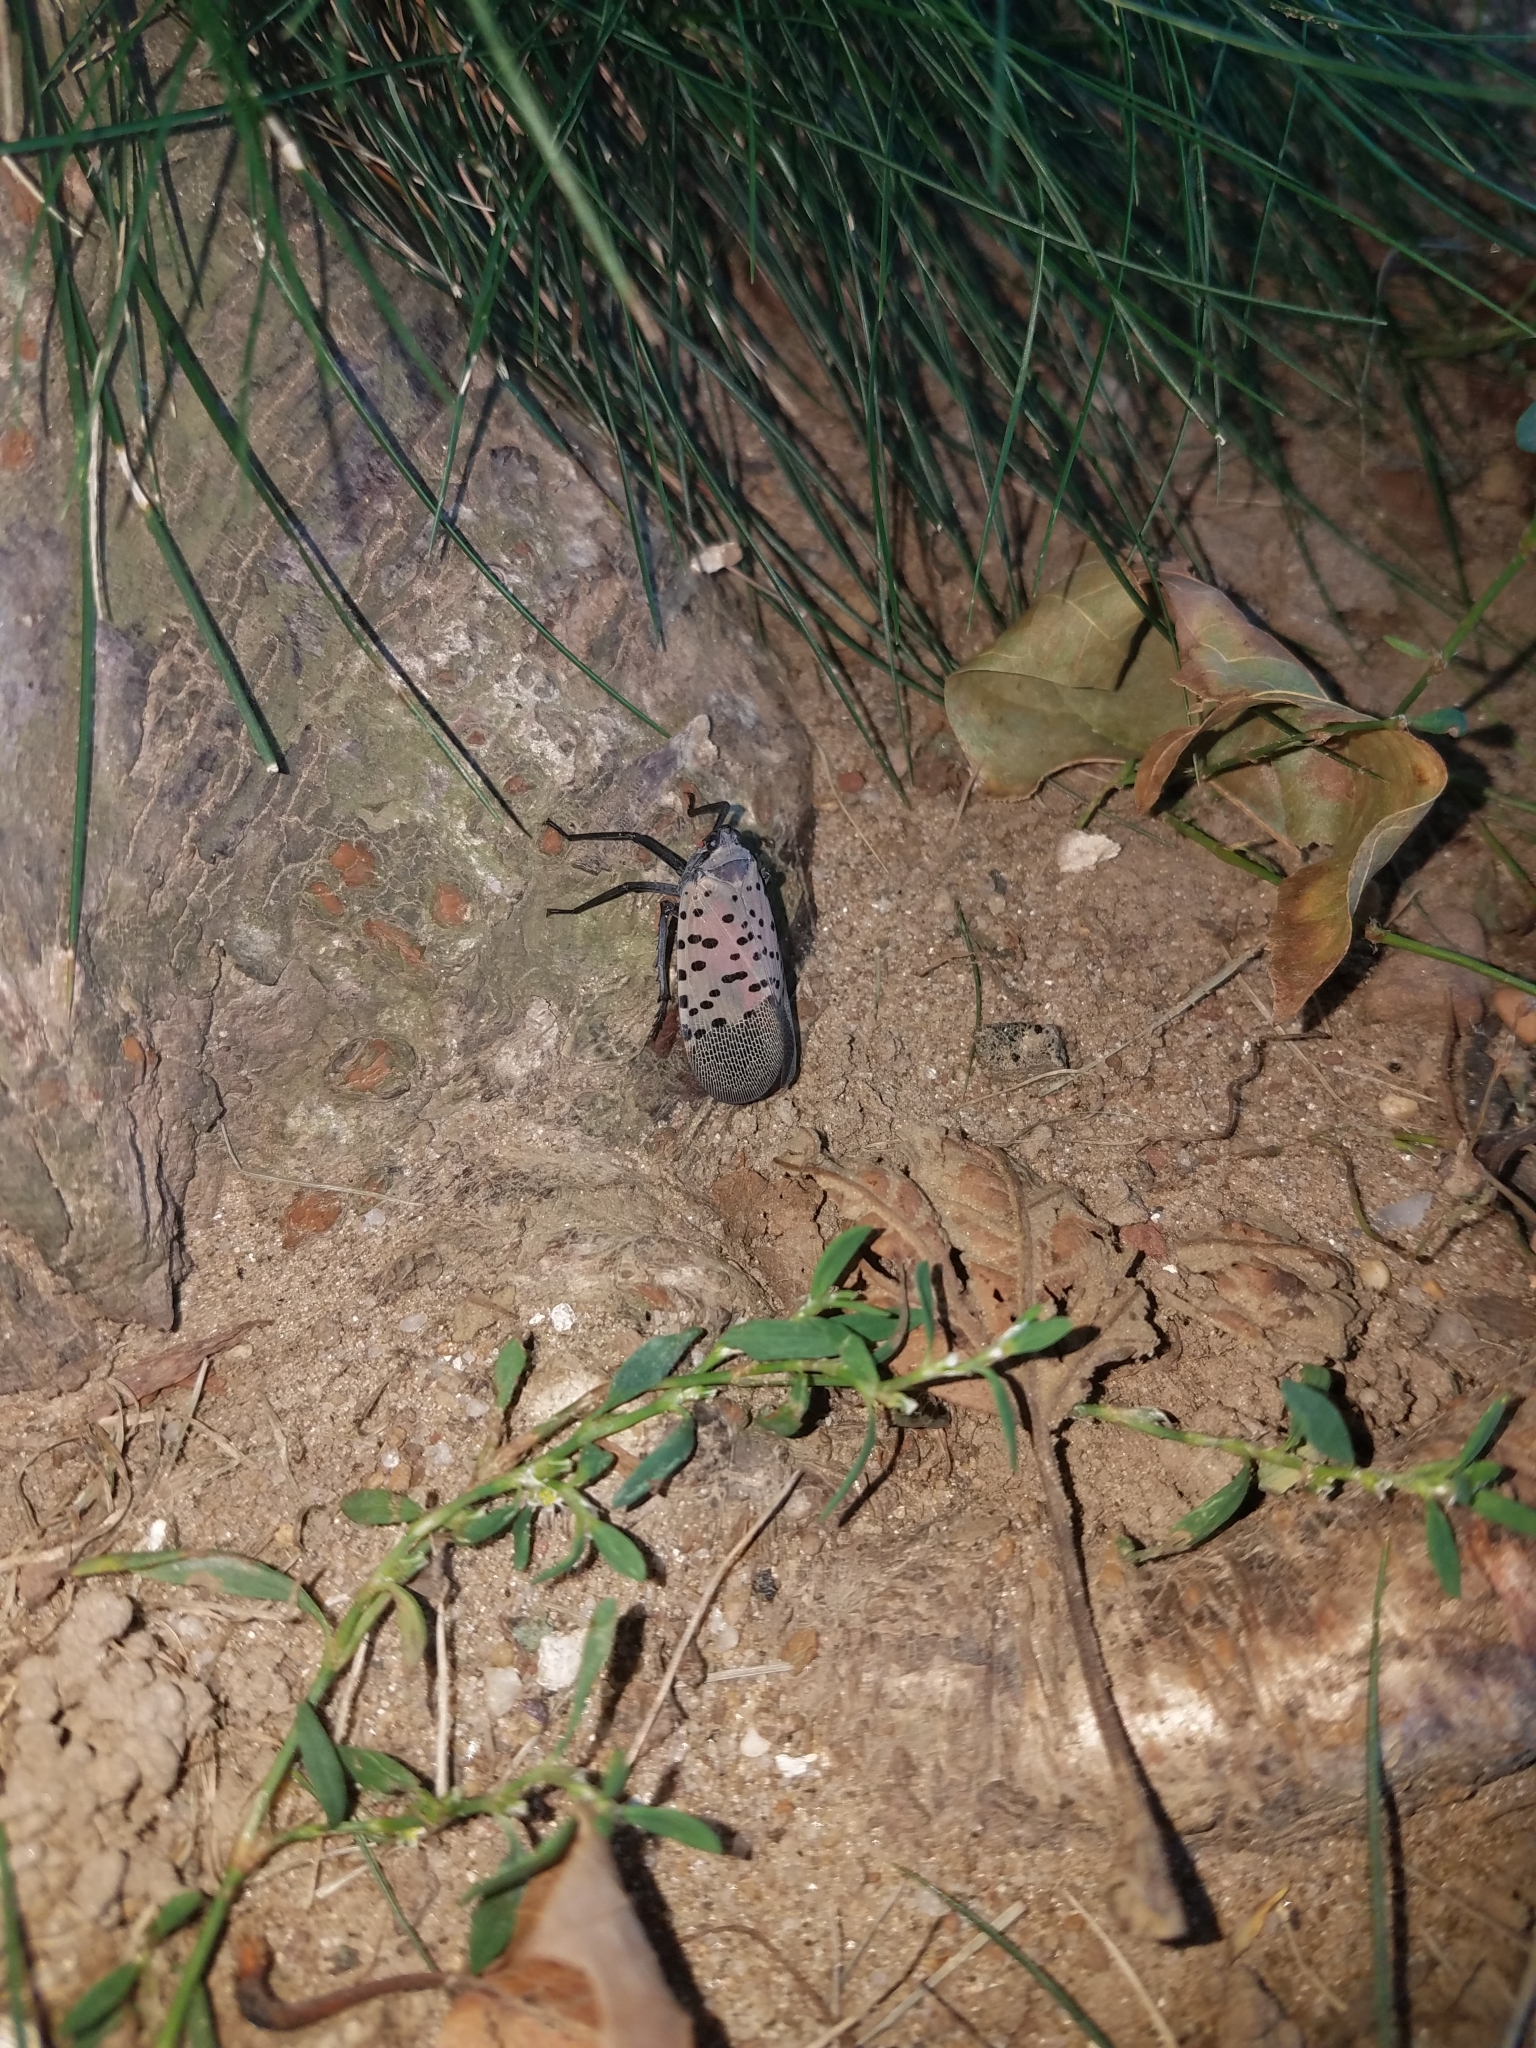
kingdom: Animalia
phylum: Arthropoda
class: Insecta
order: Hemiptera
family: Fulgoridae
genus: Lycorma
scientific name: Lycorma delicatula
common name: Spotted lanternfly
